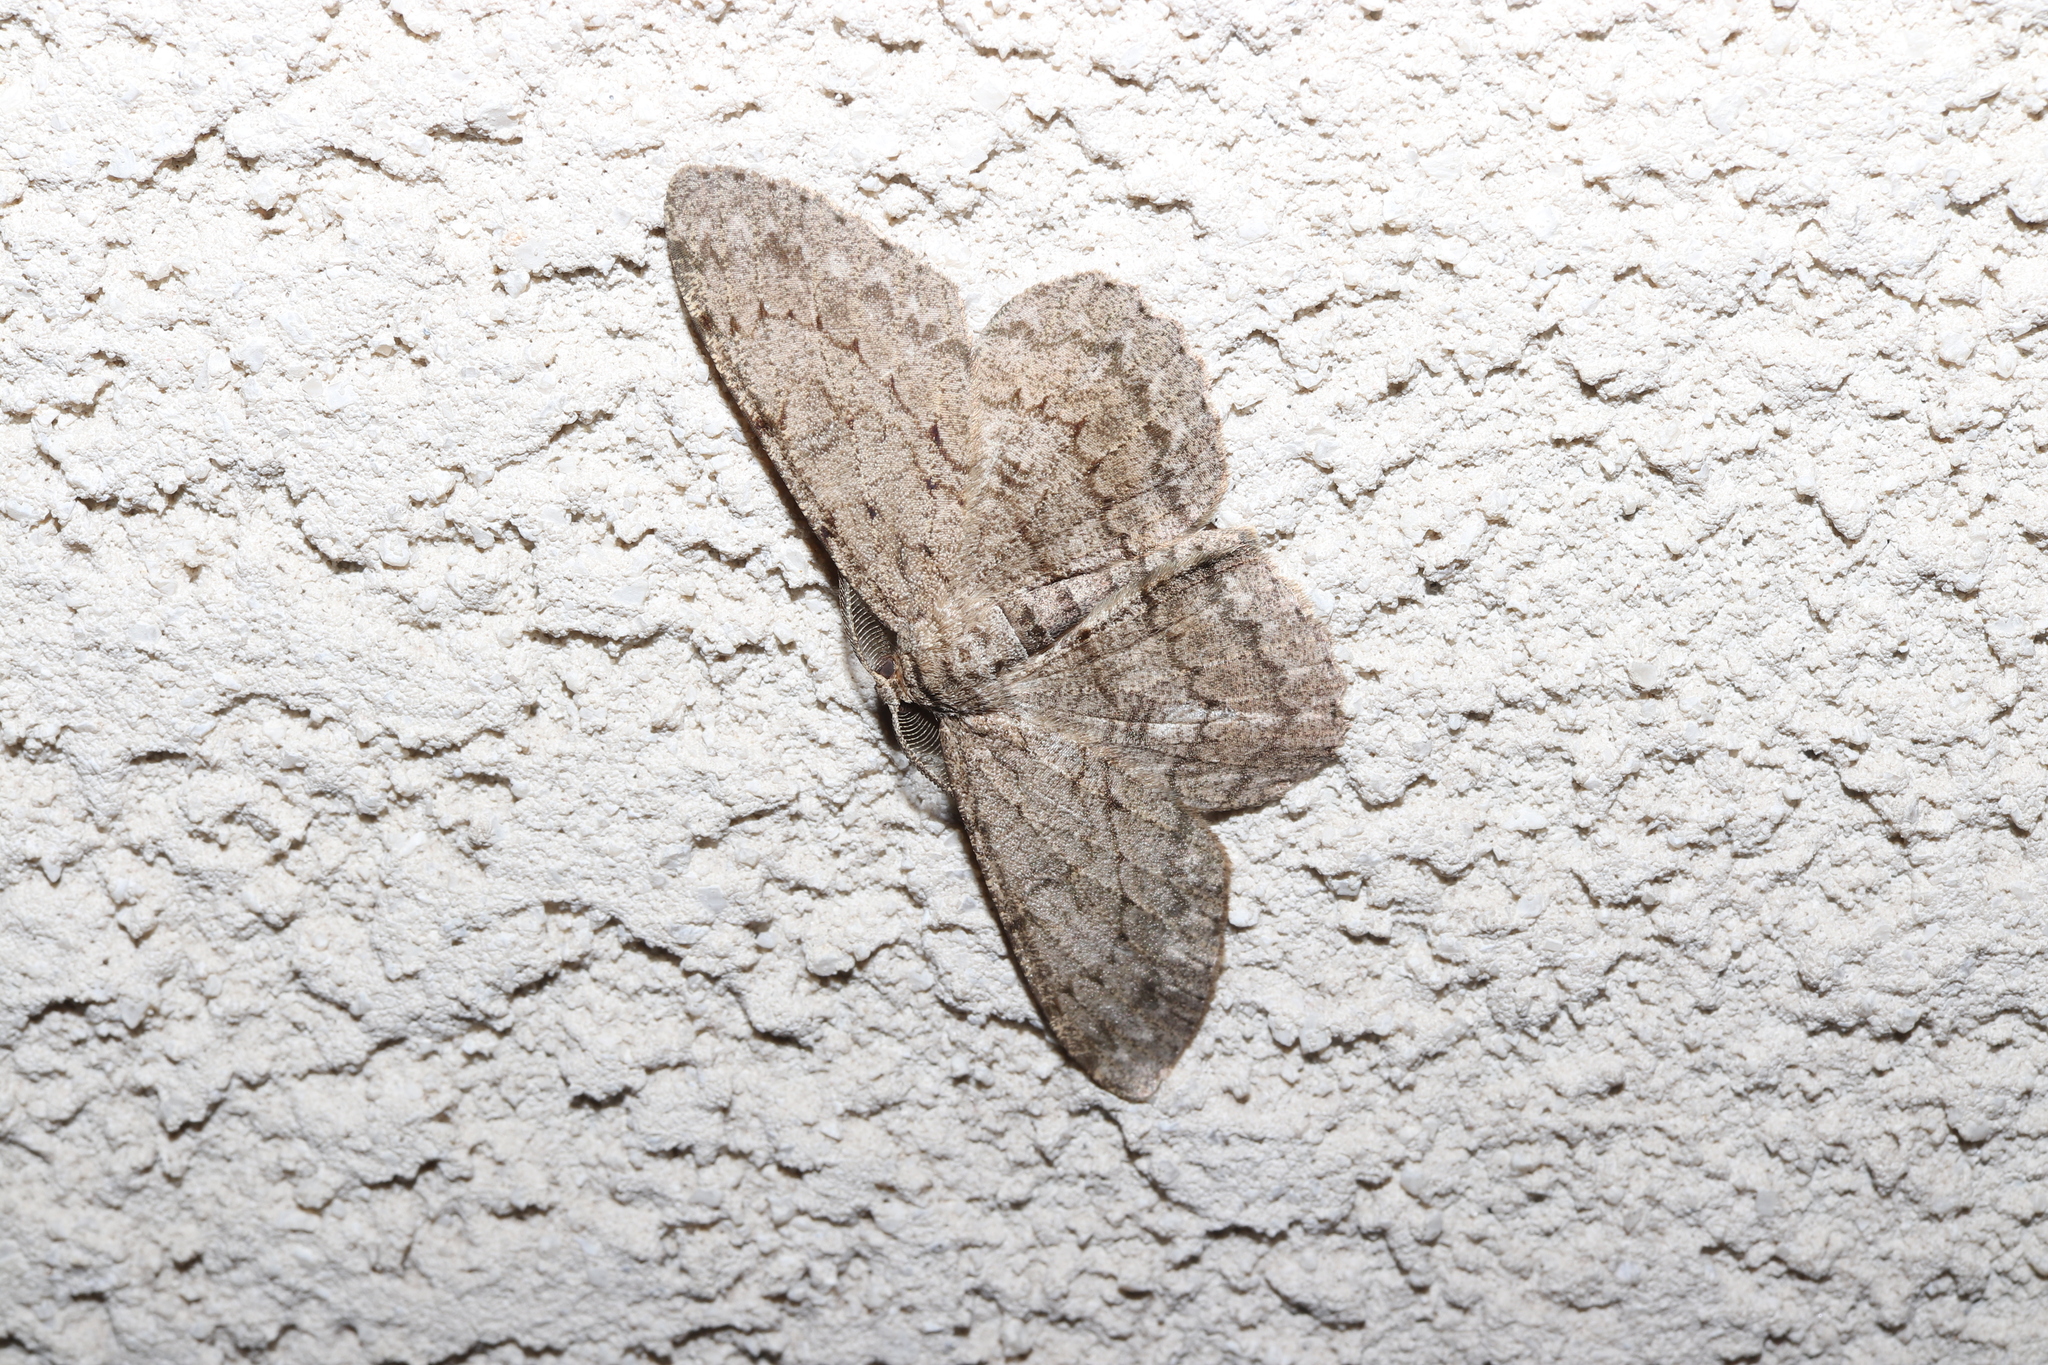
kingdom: Animalia
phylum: Arthropoda
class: Insecta
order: Lepidoptera
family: Geometridae
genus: Hypomecis
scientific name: Hypomecis punctinalis
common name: Pale oak beauty
